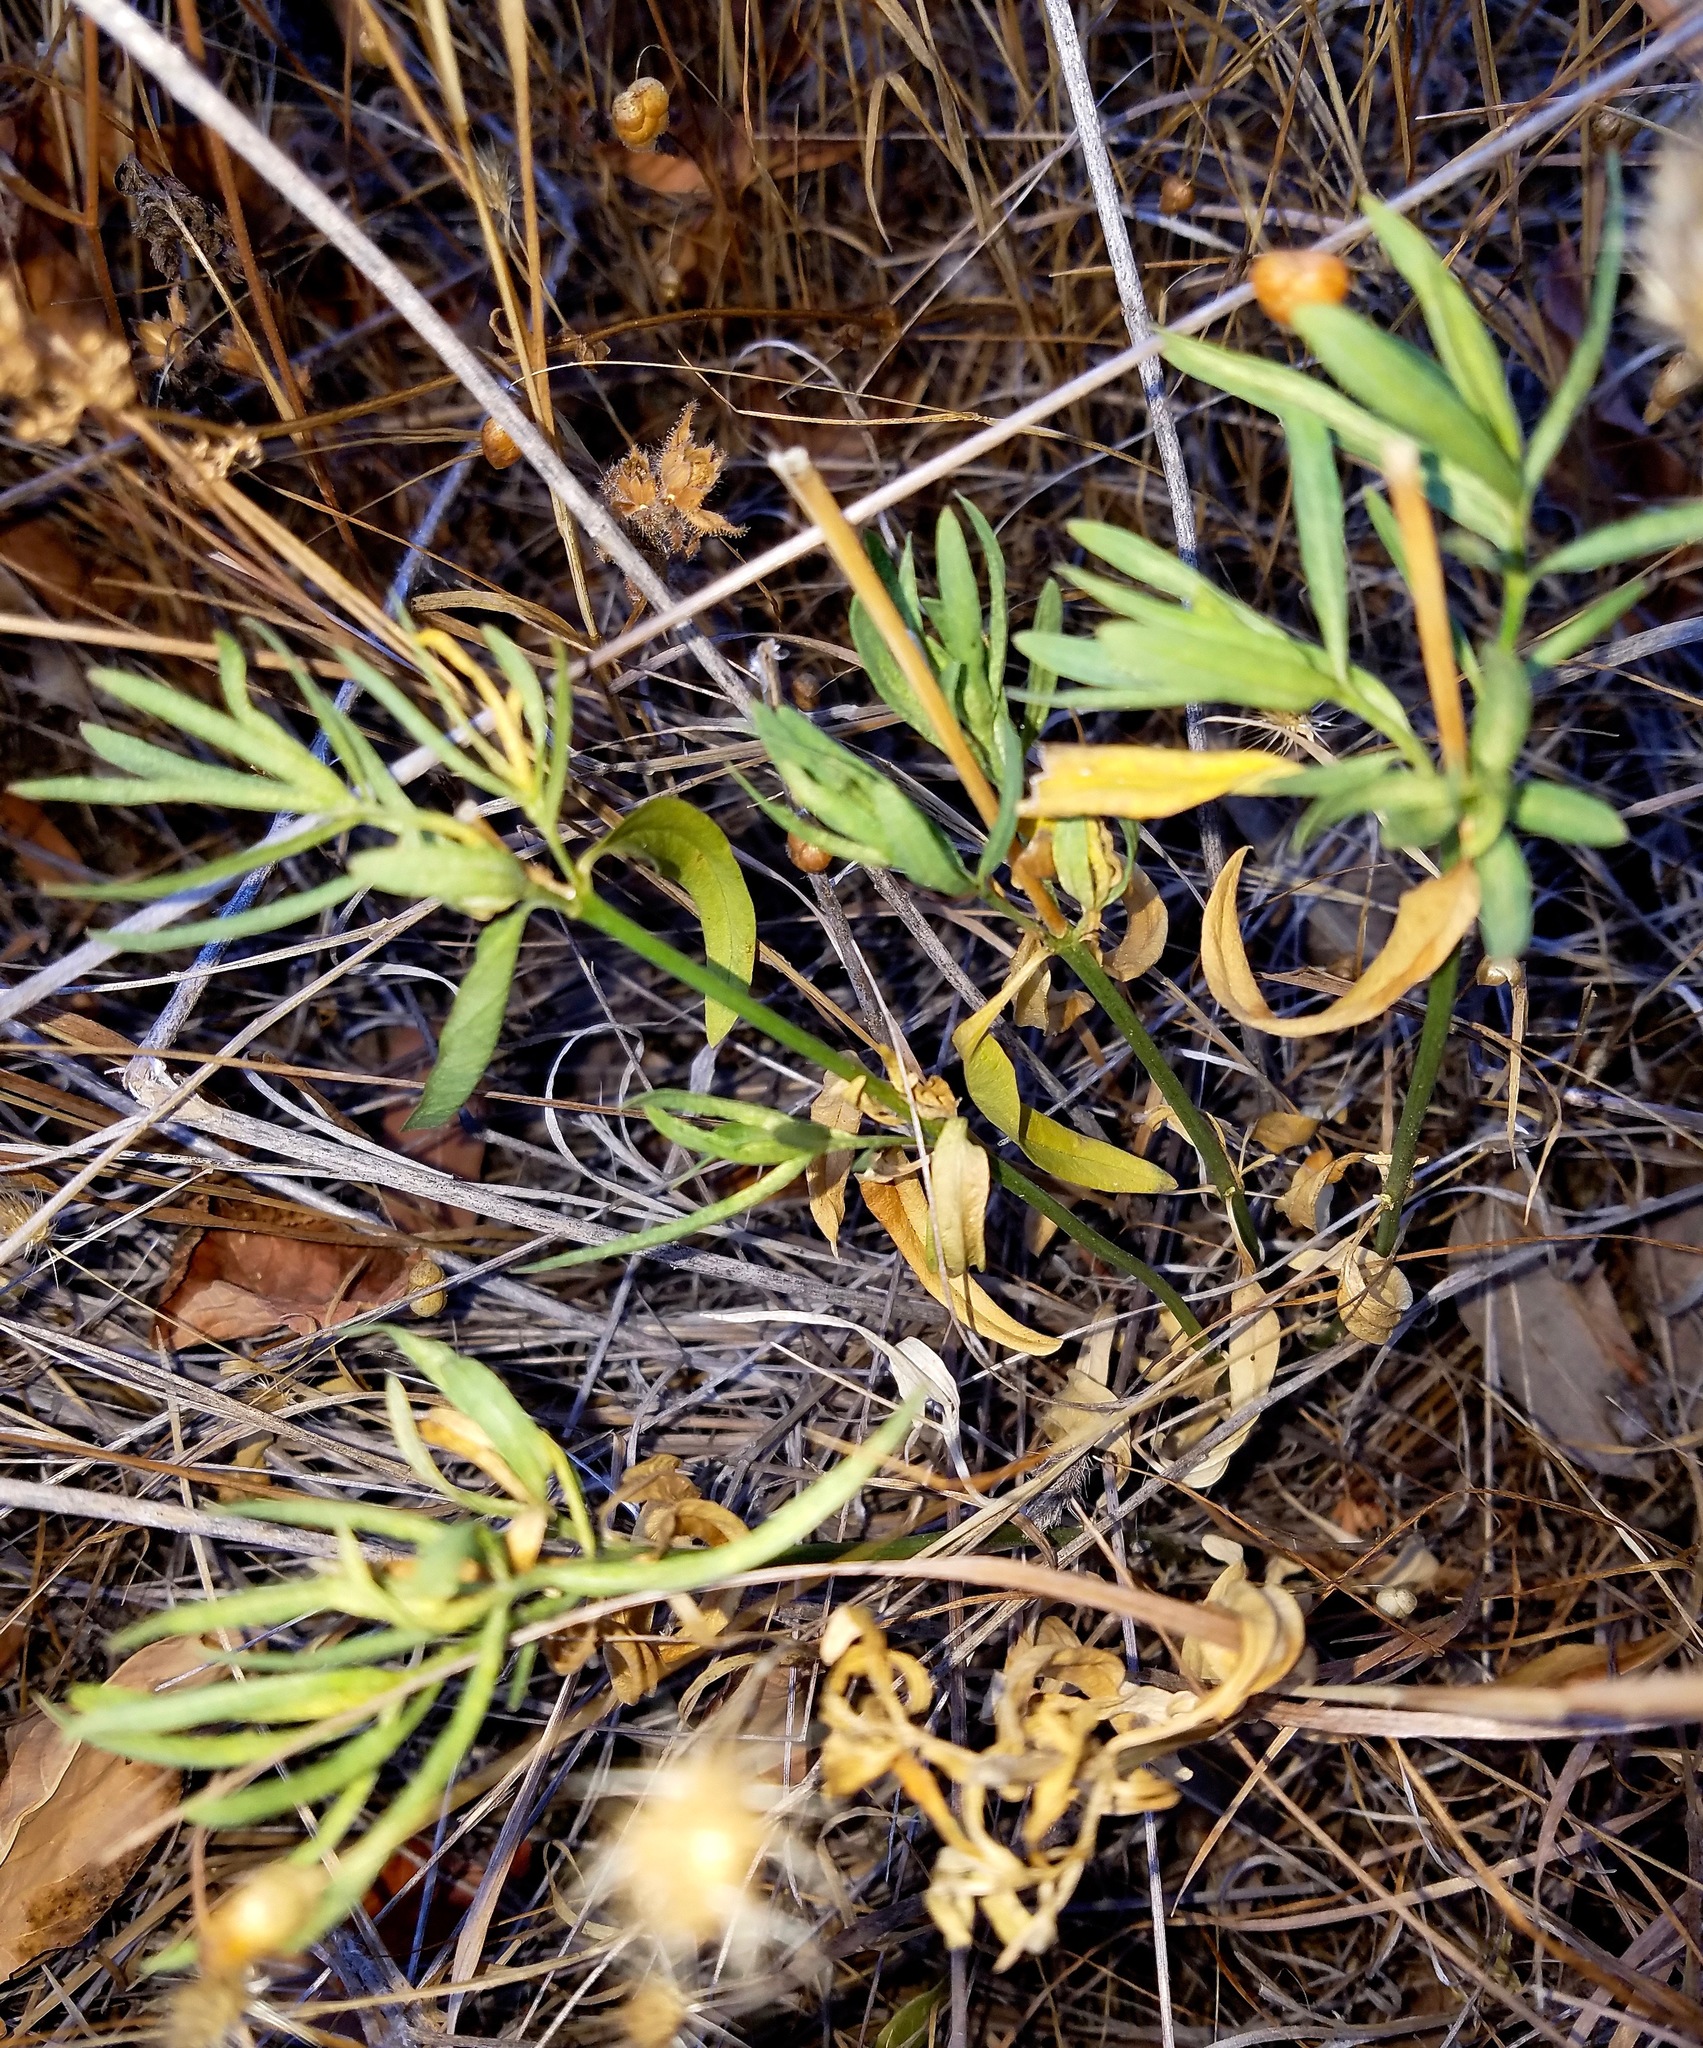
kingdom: Plantae
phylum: Tracheophyta
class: Magnoliopsida
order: Gentianales
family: Apocynaceae
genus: Asclepias
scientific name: Asclepias fascicularis
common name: Mexican milkweed
